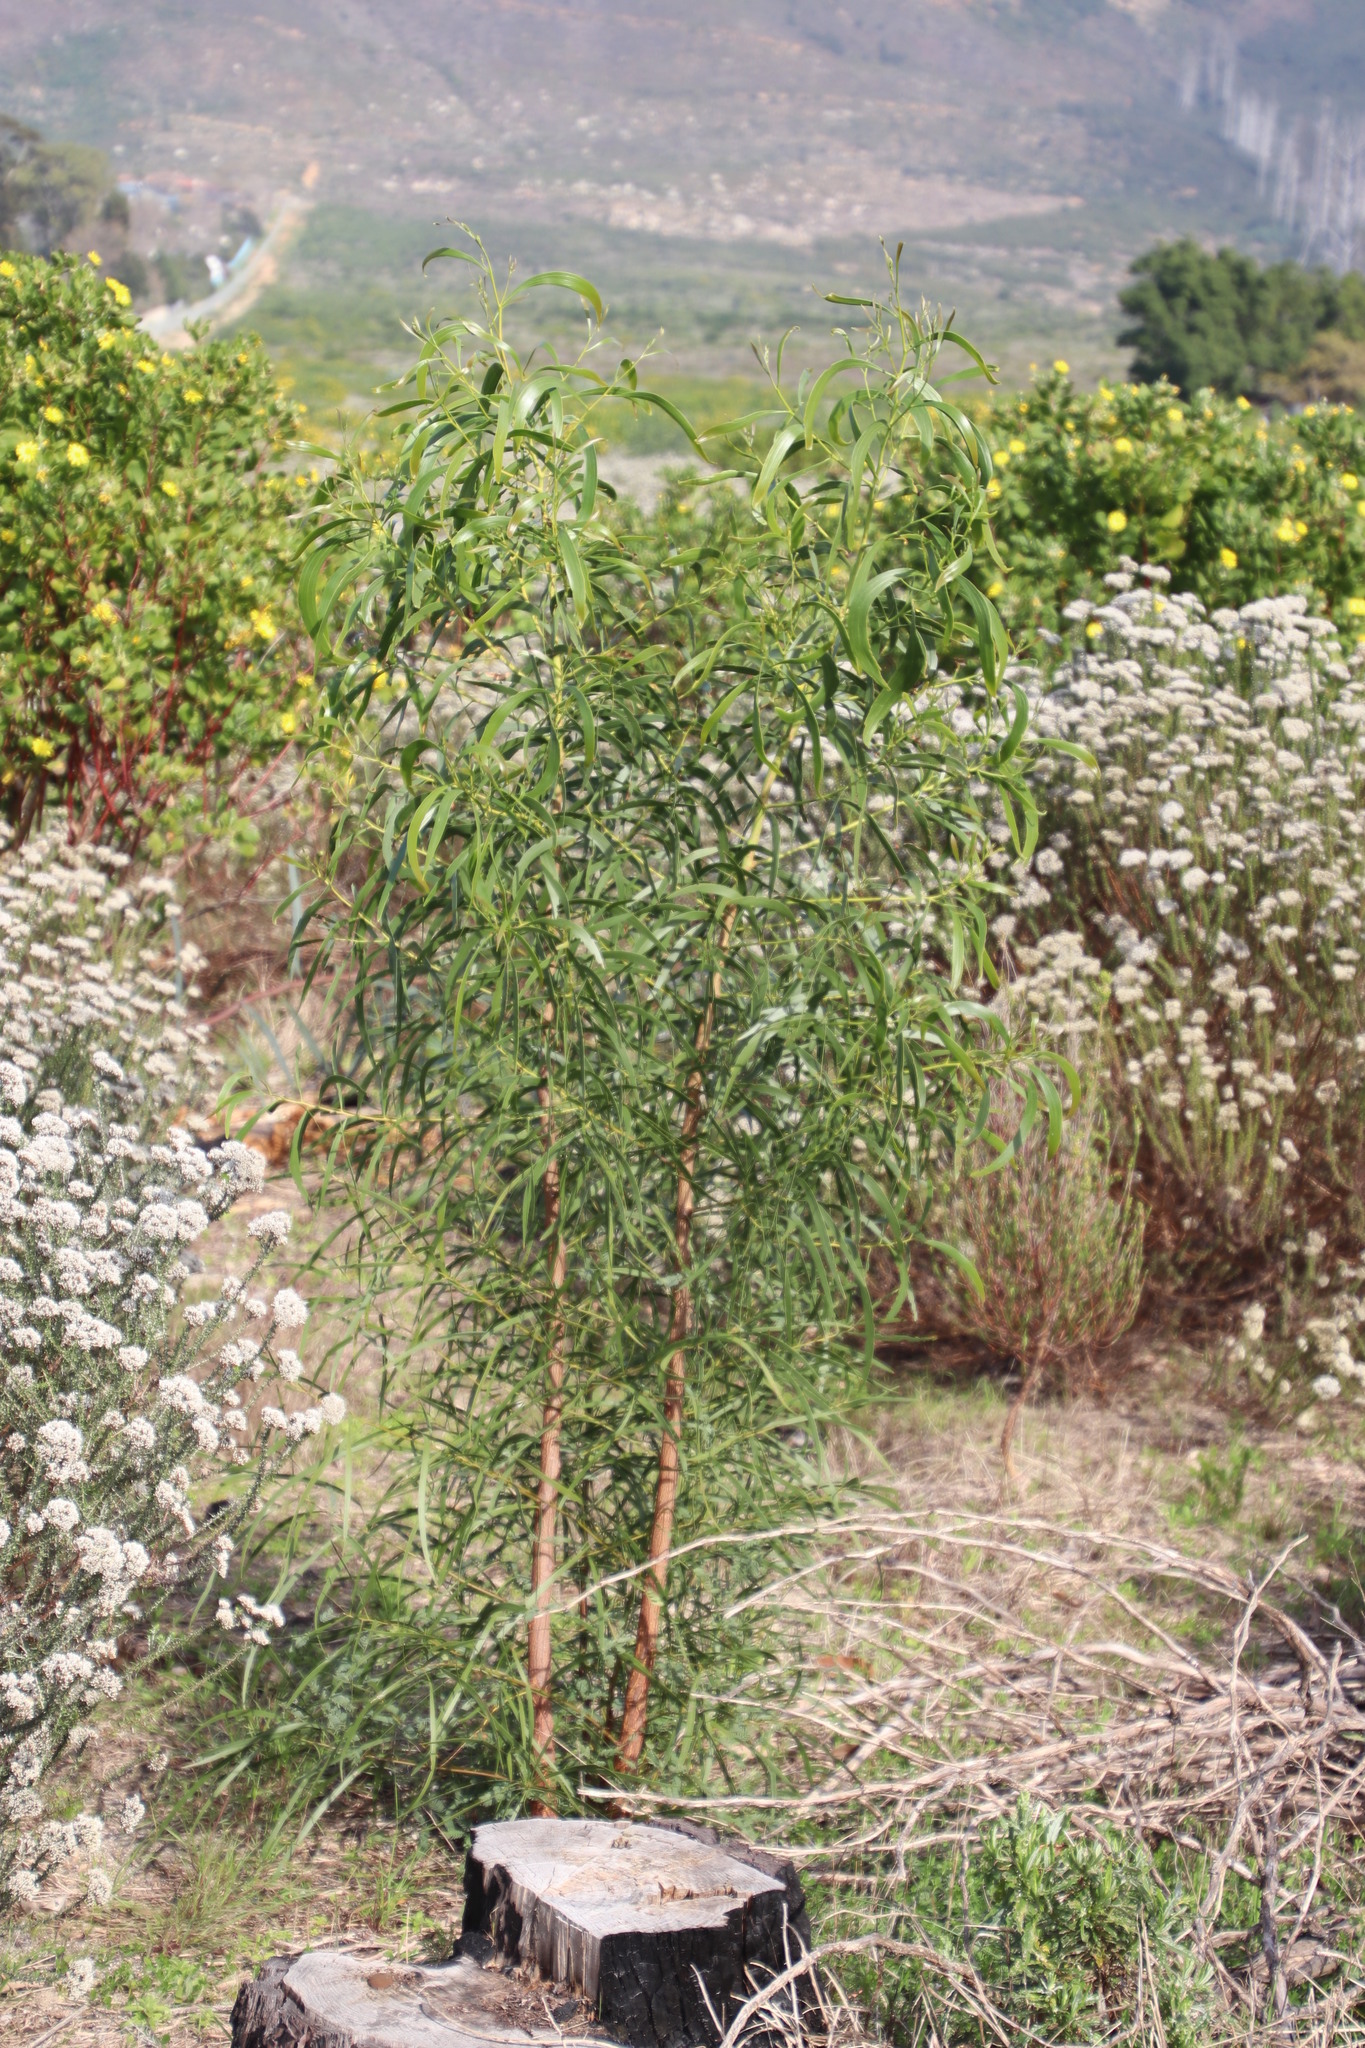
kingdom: Plantae
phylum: Tracheophyta
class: Magnoliopsida
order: Fabales
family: Fabaceae
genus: Acacia
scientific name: Acacia implexa
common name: Black wattle
